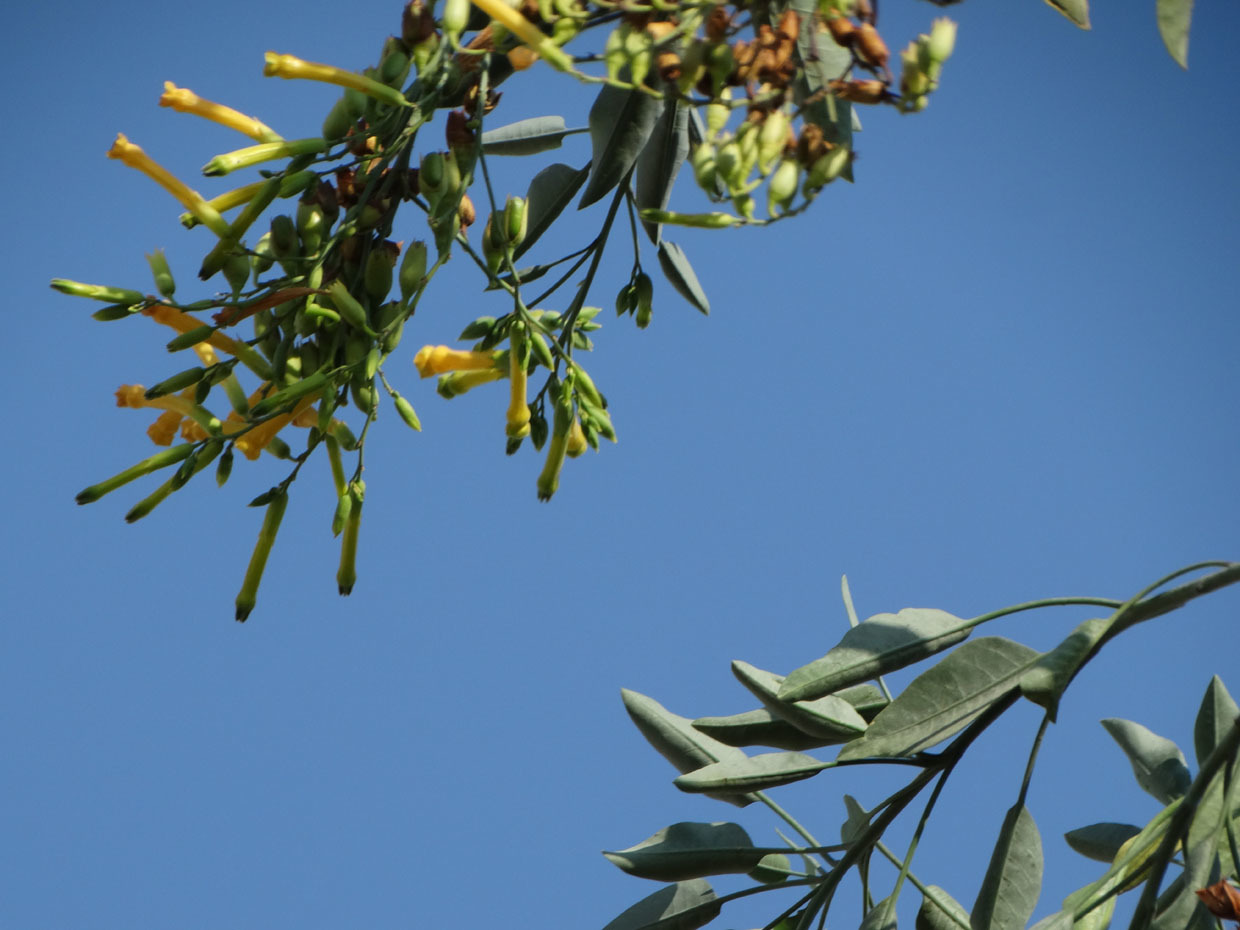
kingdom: Plantae
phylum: Tracheophyta
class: Magnoliopsida
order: Solanales
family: Solanaceae
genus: Nicotiana
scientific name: Nicotiana glauca
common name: Tree tobacco
